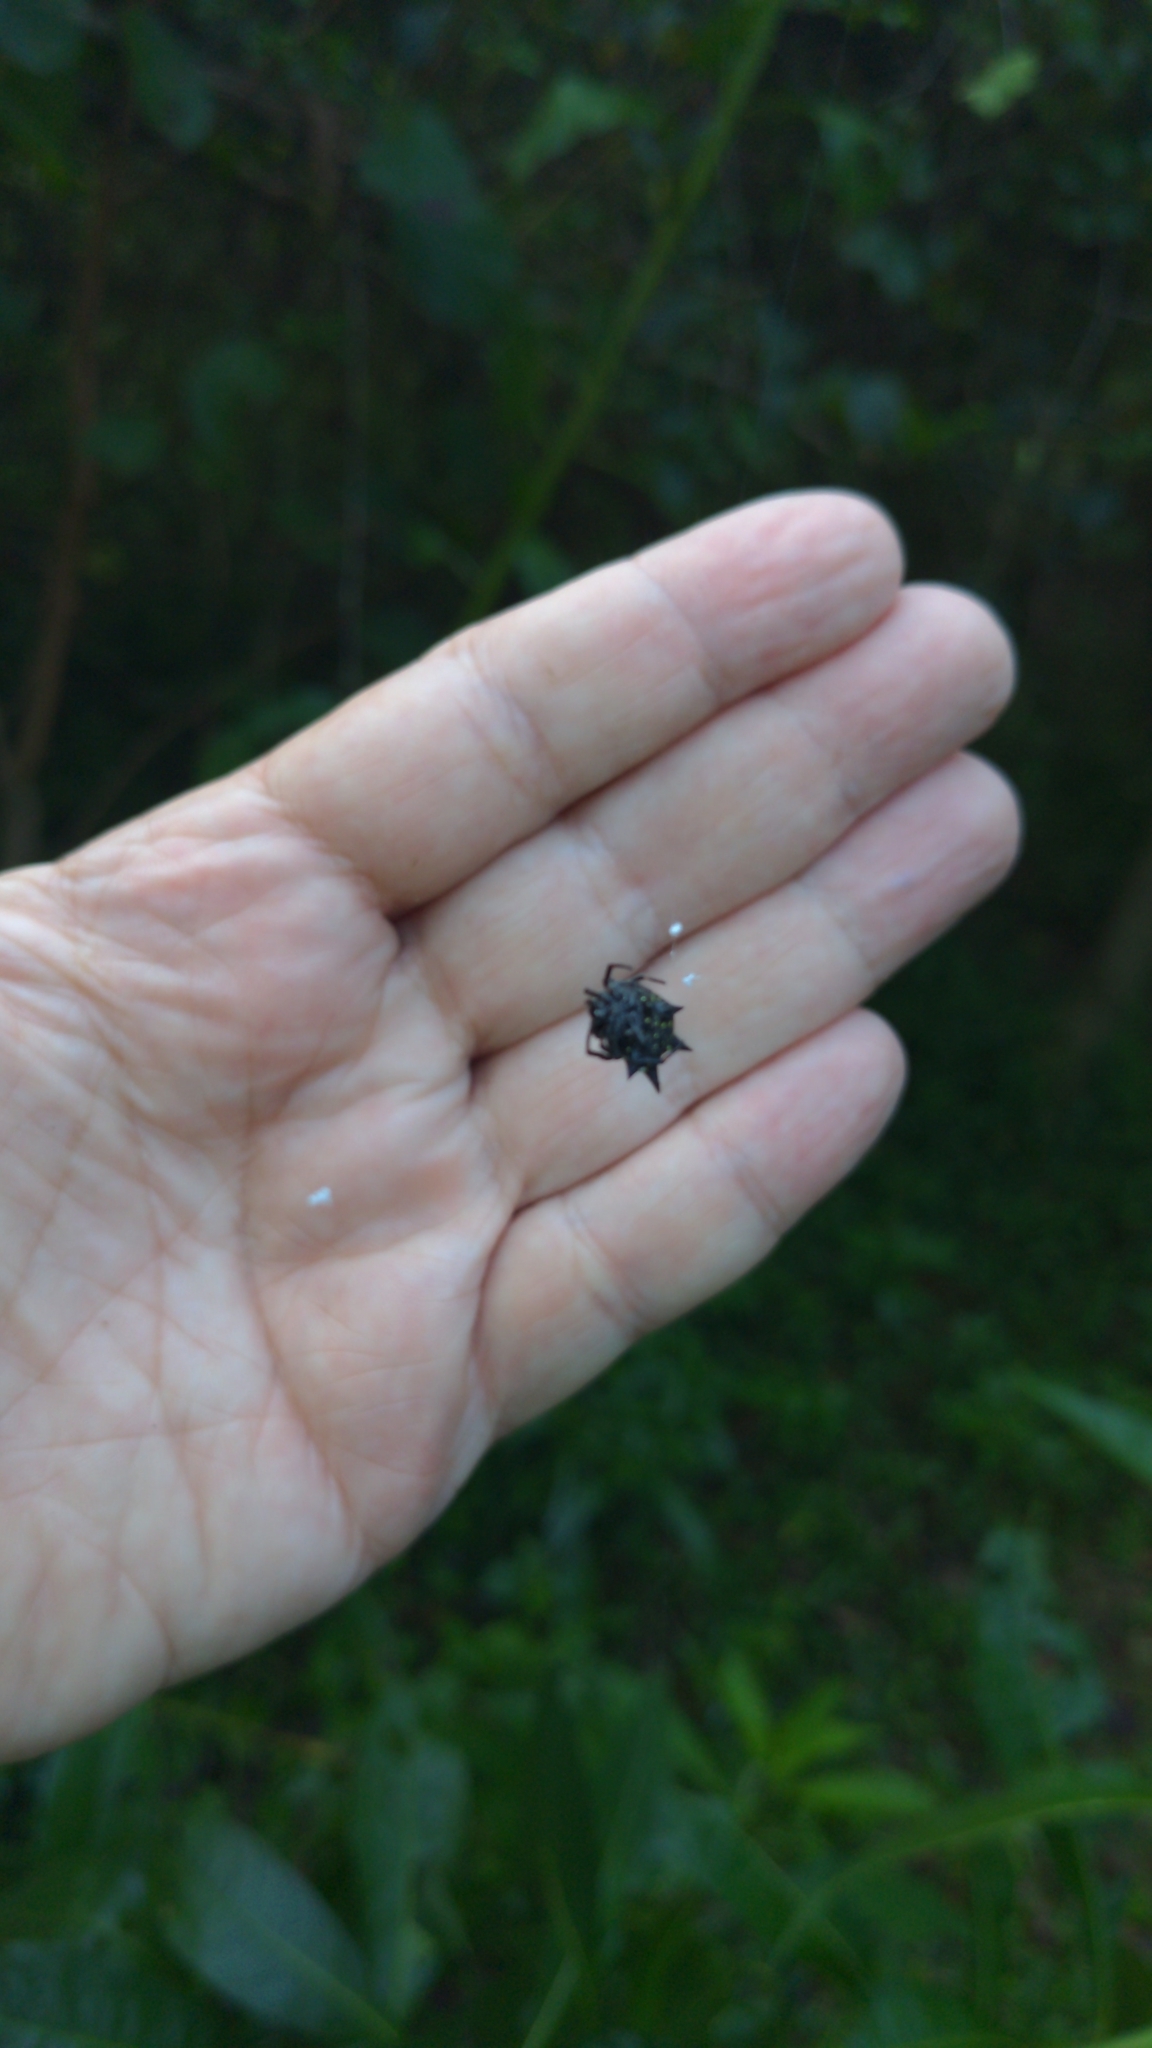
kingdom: Animalia
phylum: Arthropoda
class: Arachnida
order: Araneae
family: Araneidae
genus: Gasteracantha
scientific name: Gasteracantha cancriformis
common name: Orb weavers
